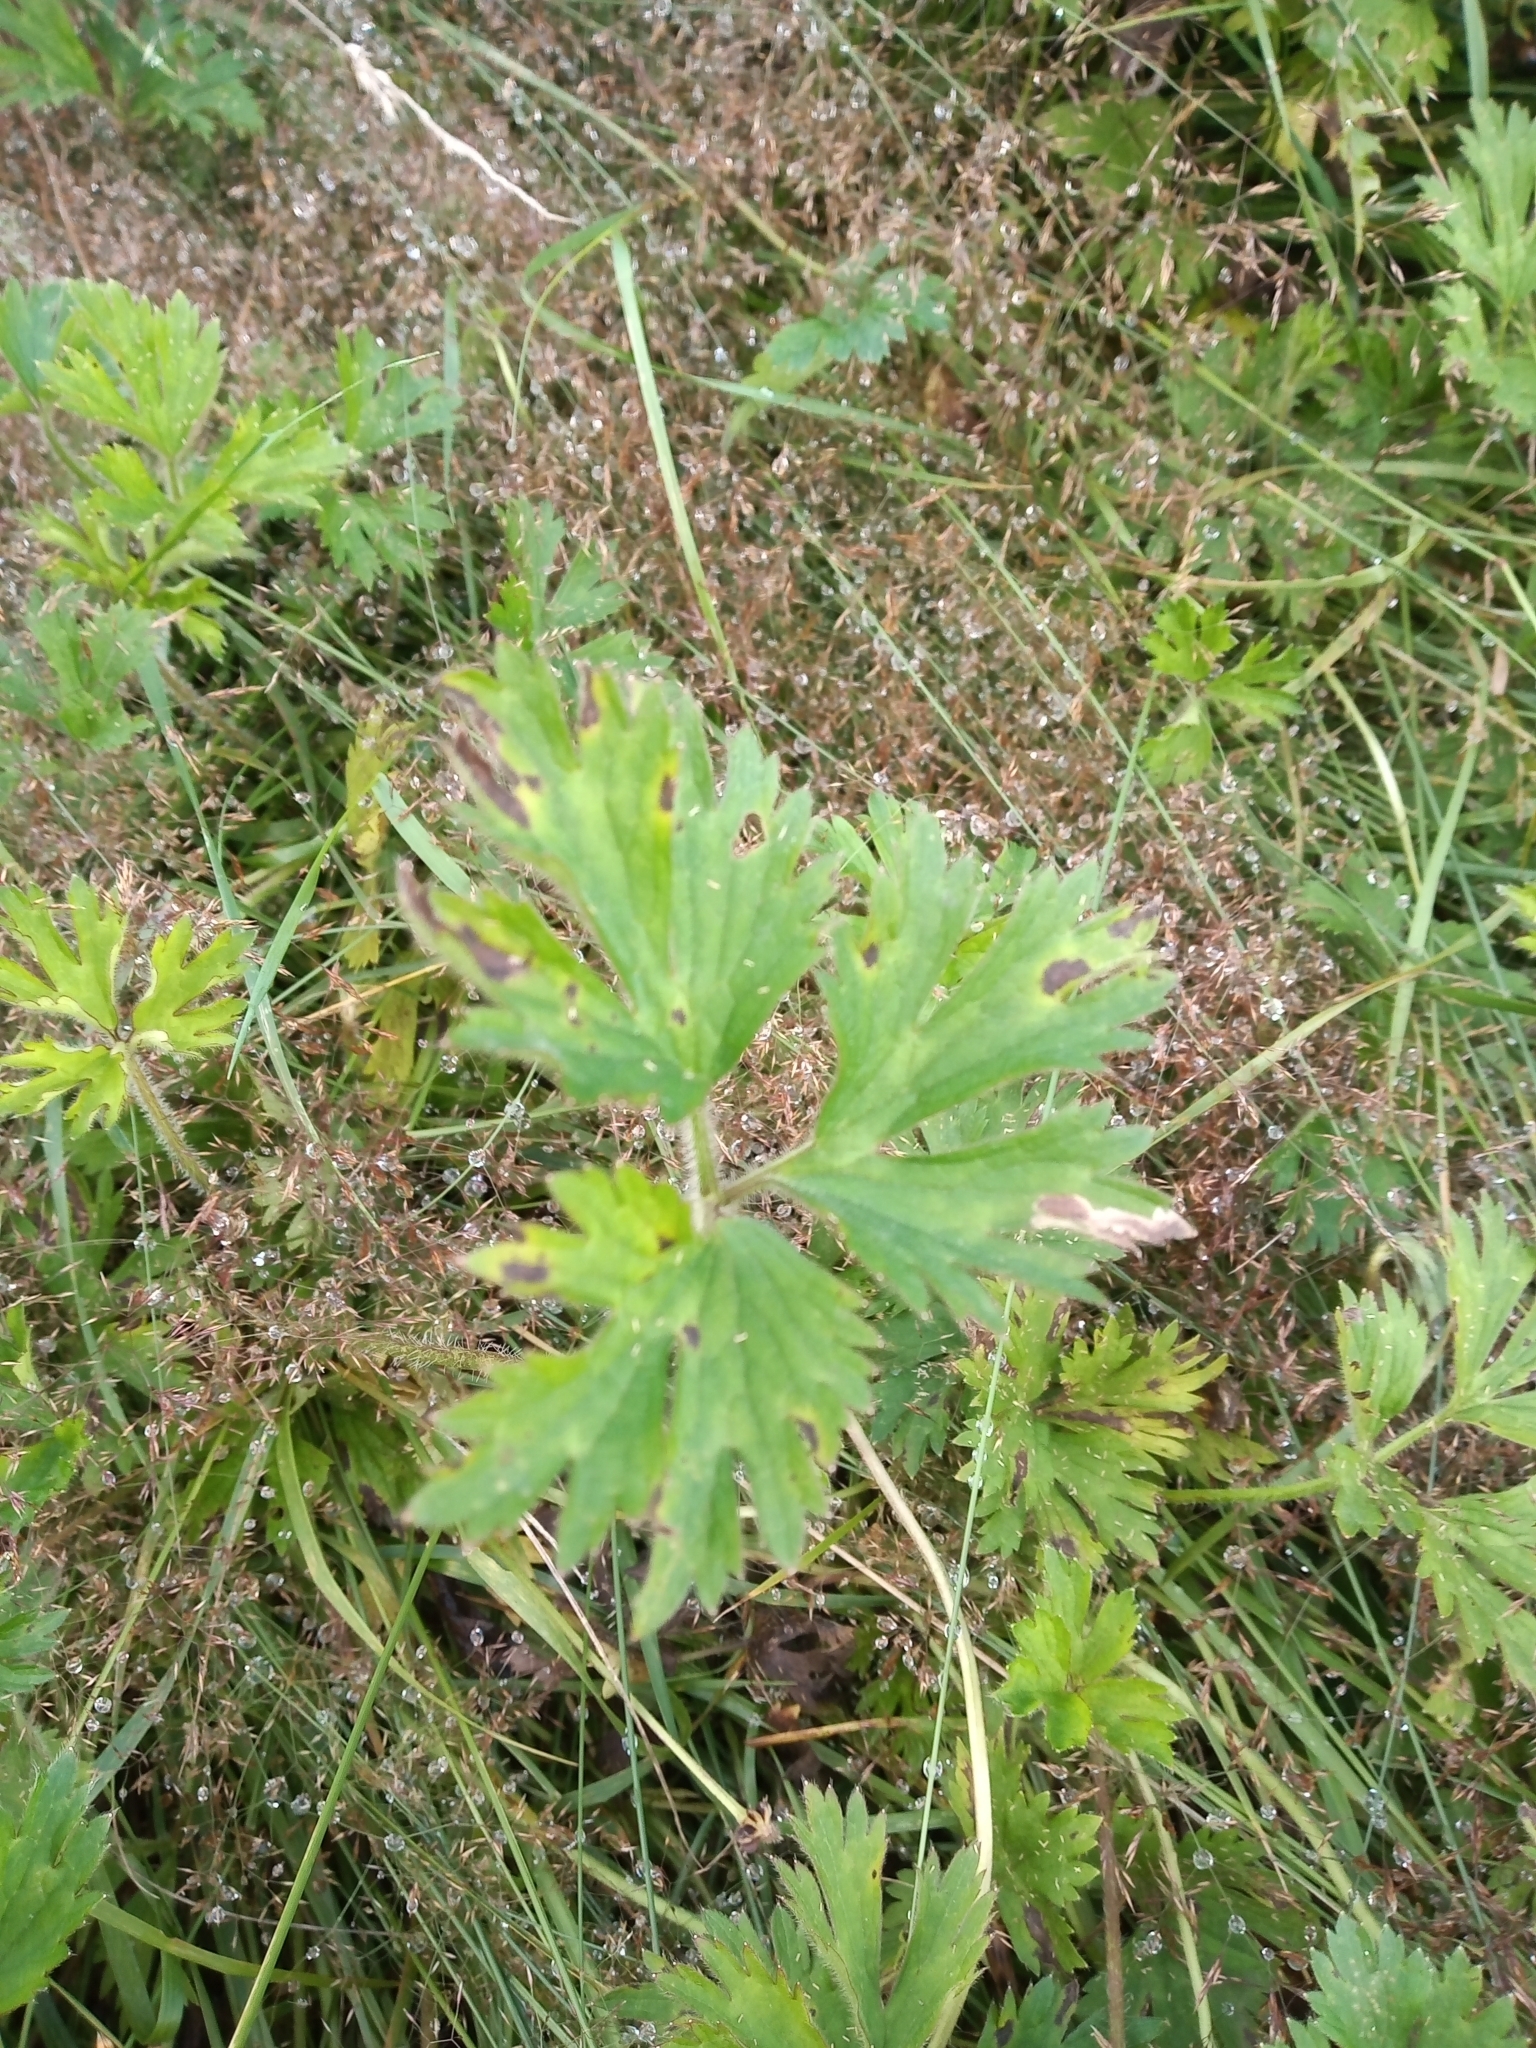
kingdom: Plantae
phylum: Tracheophyta
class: Magnoliopsida
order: Ranunculales
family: Ranunculaceae
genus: Ranunculus
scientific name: Ranunculus repens
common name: Creeping buttercup
